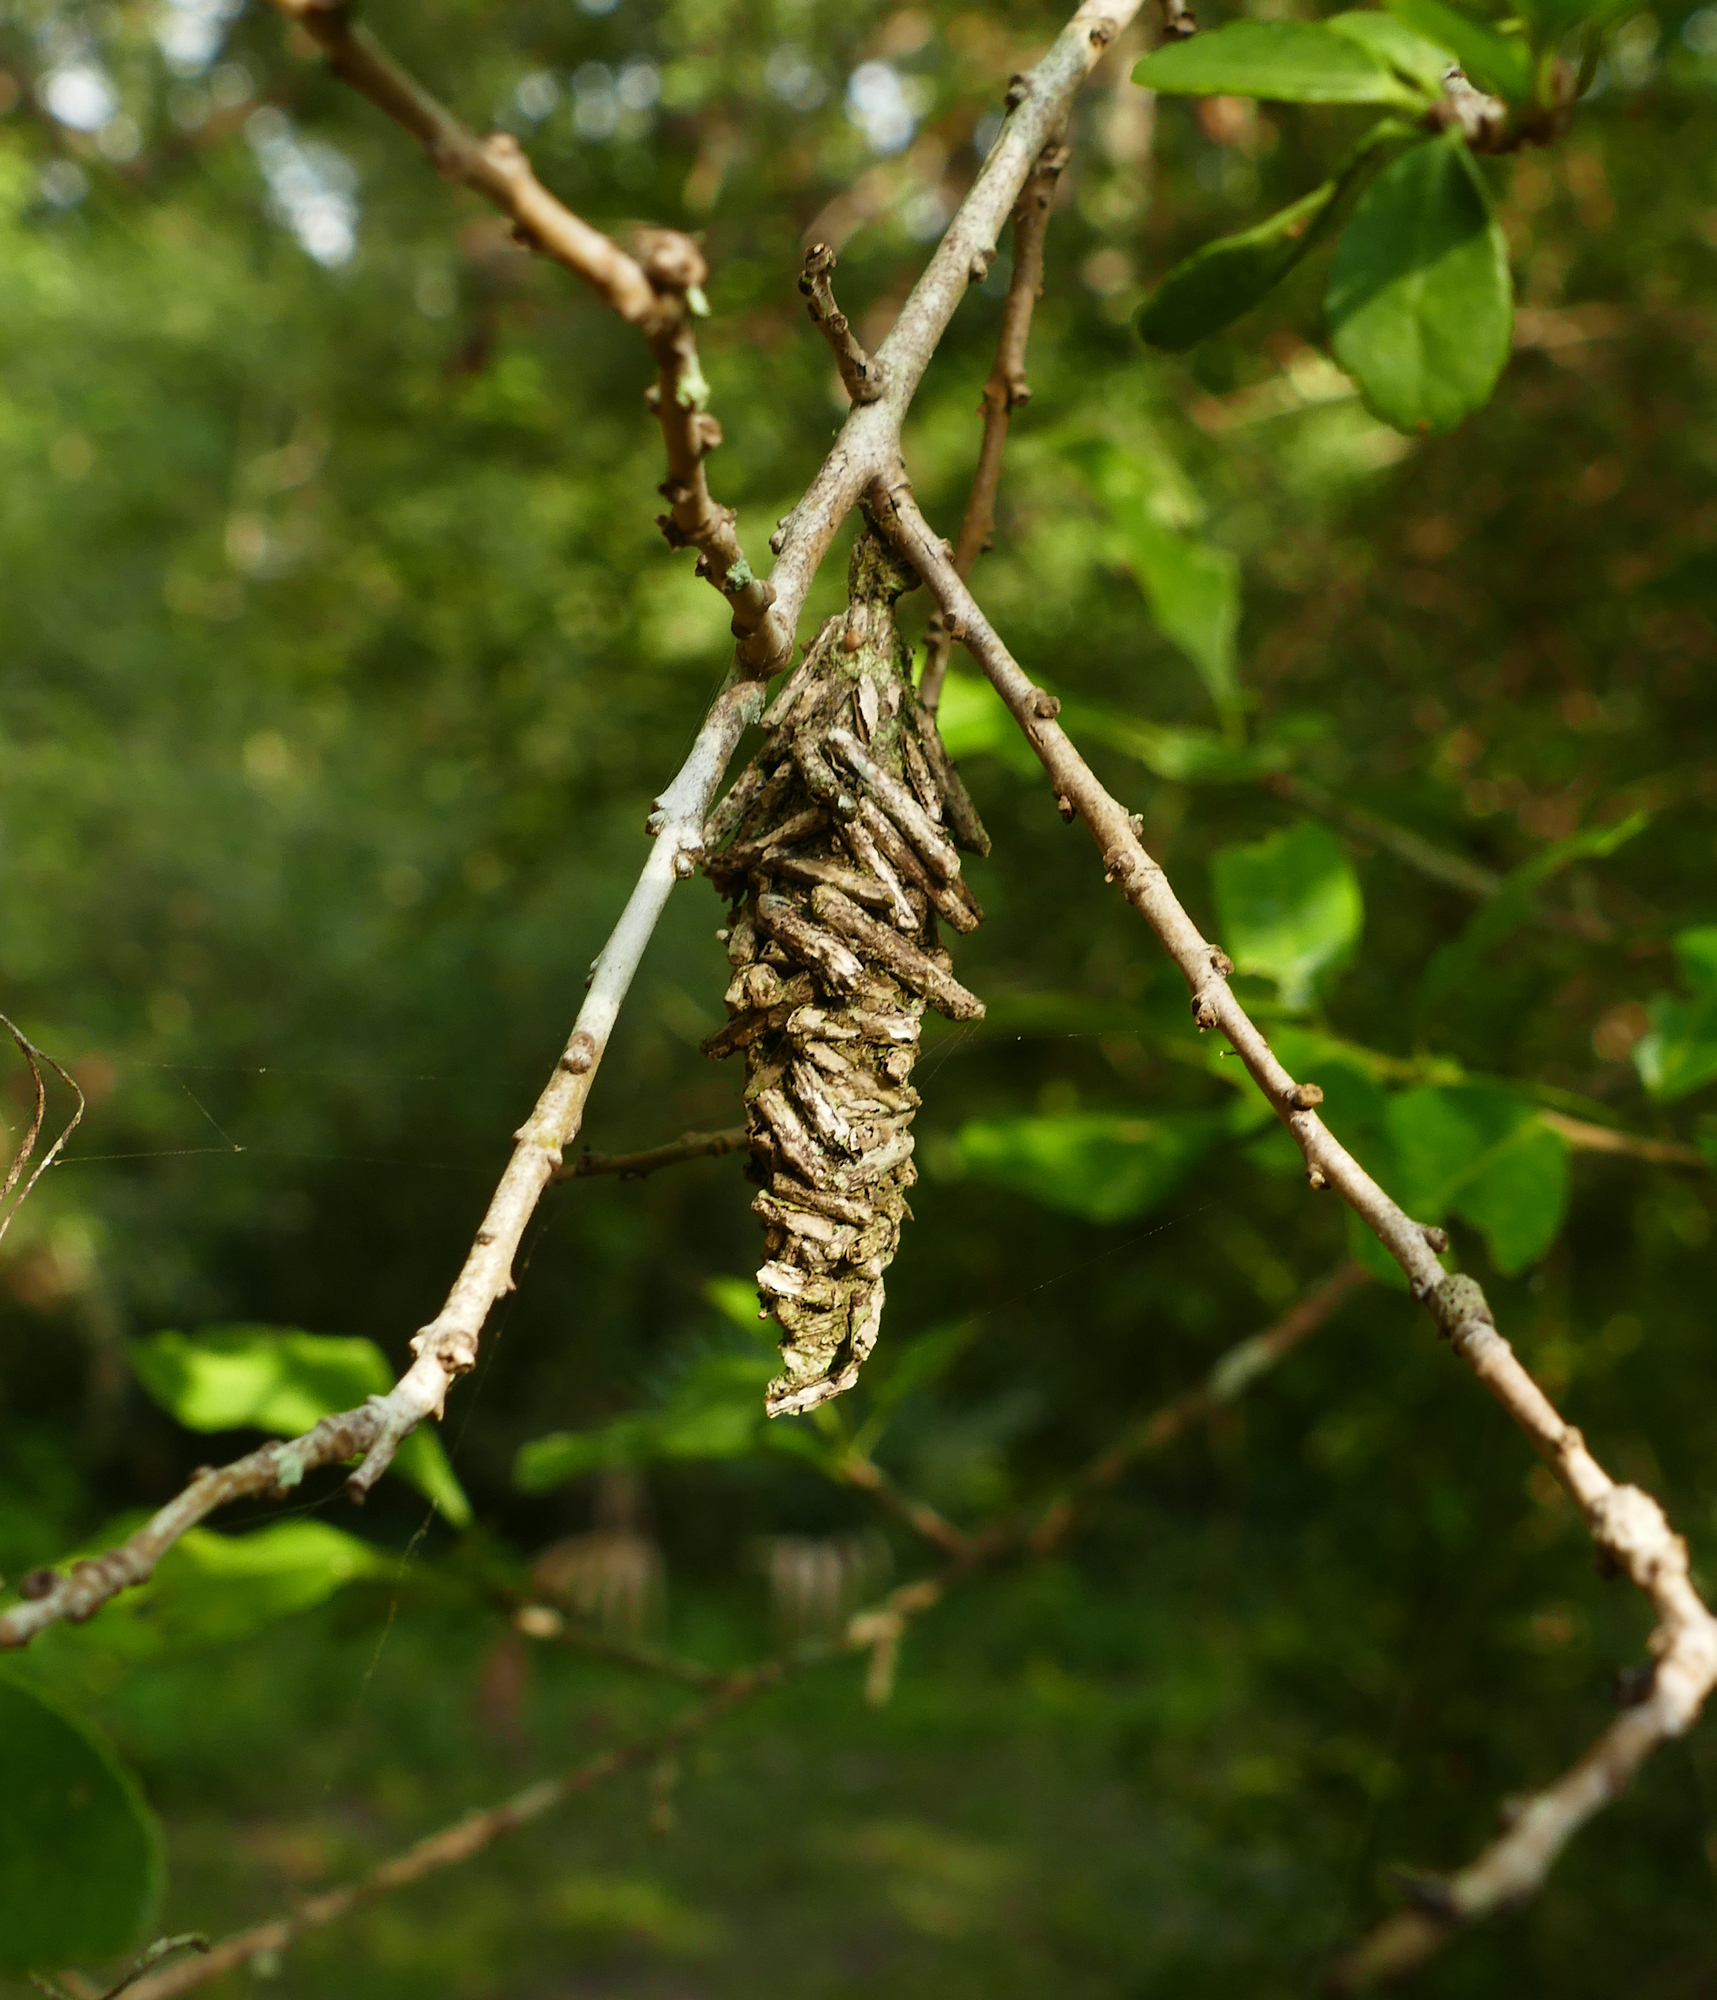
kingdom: Animalia
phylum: Arthropoda
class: Insecta
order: Lepidoptera
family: Psychidae
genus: Oiketicus
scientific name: Oiketicus
